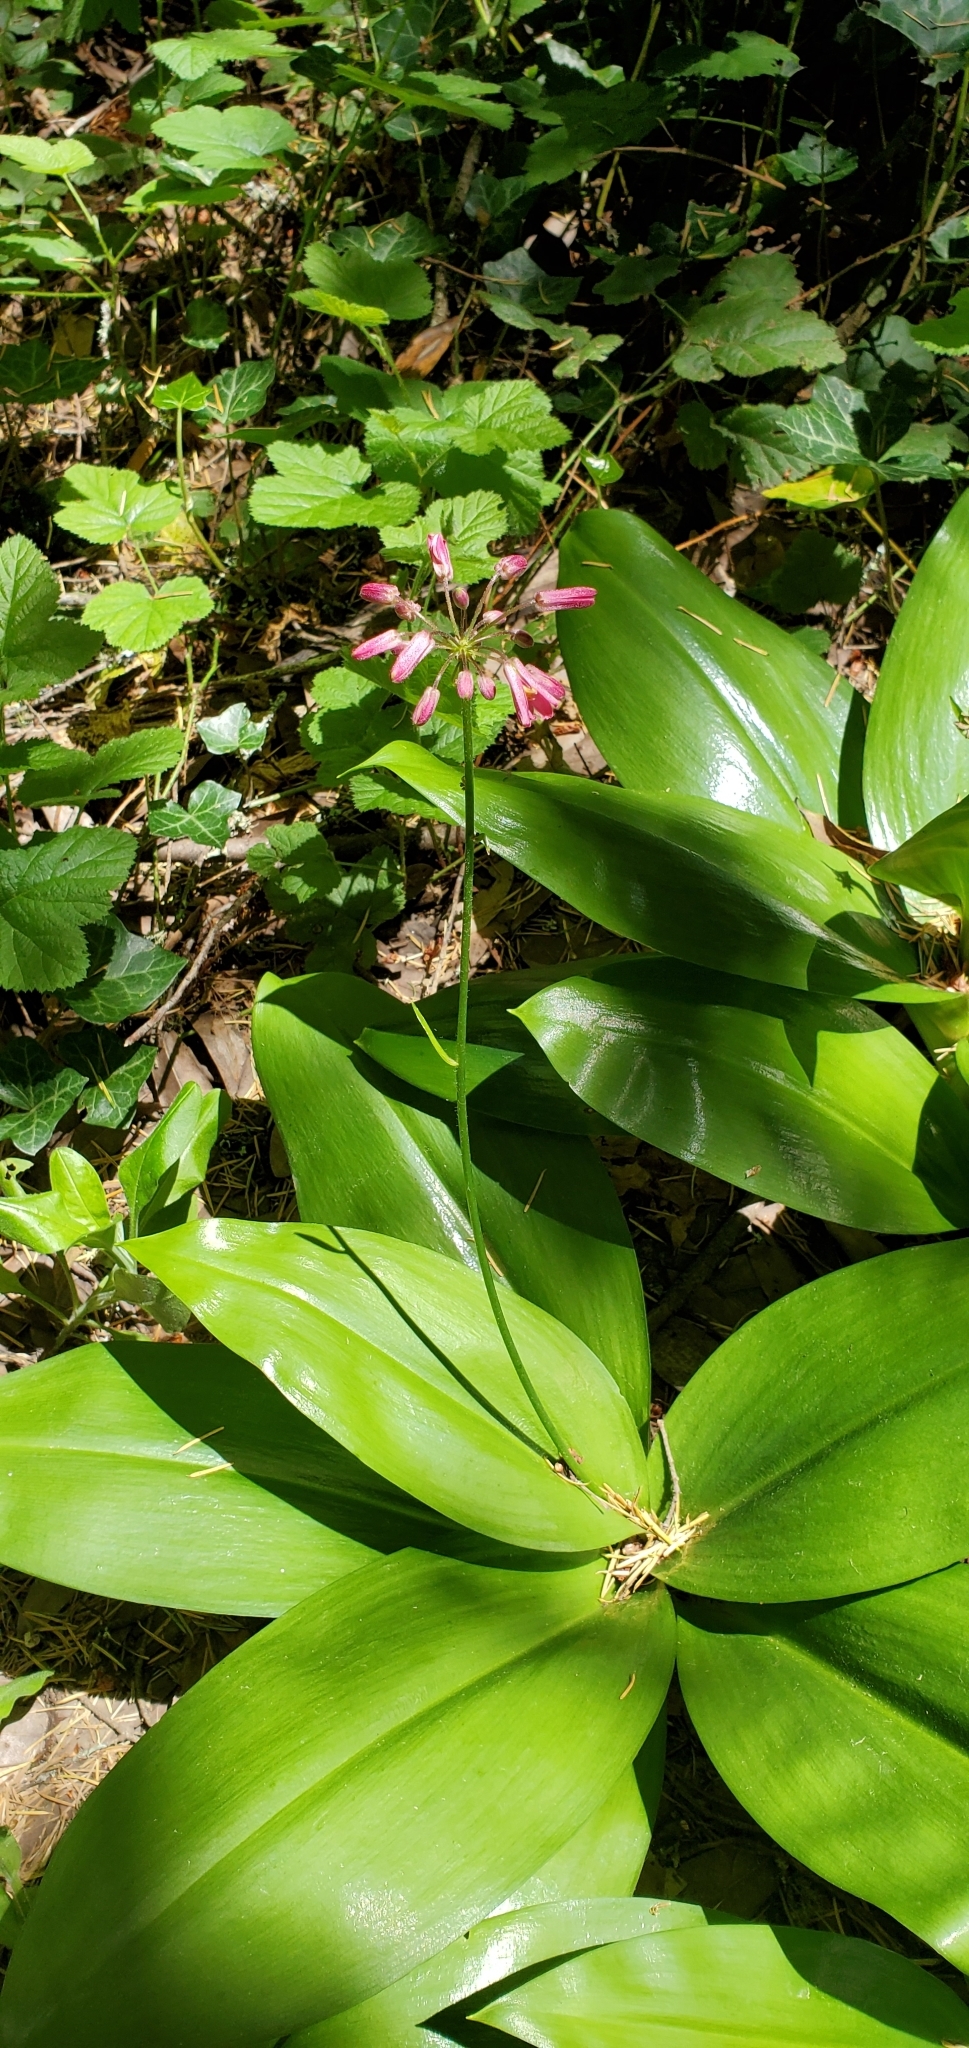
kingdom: Plantae
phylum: Tracheophyta
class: Liliopsida
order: Liliales
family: Liliaceae
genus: Clintonia
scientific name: Clintonia andrewsiana
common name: Red clintonia
